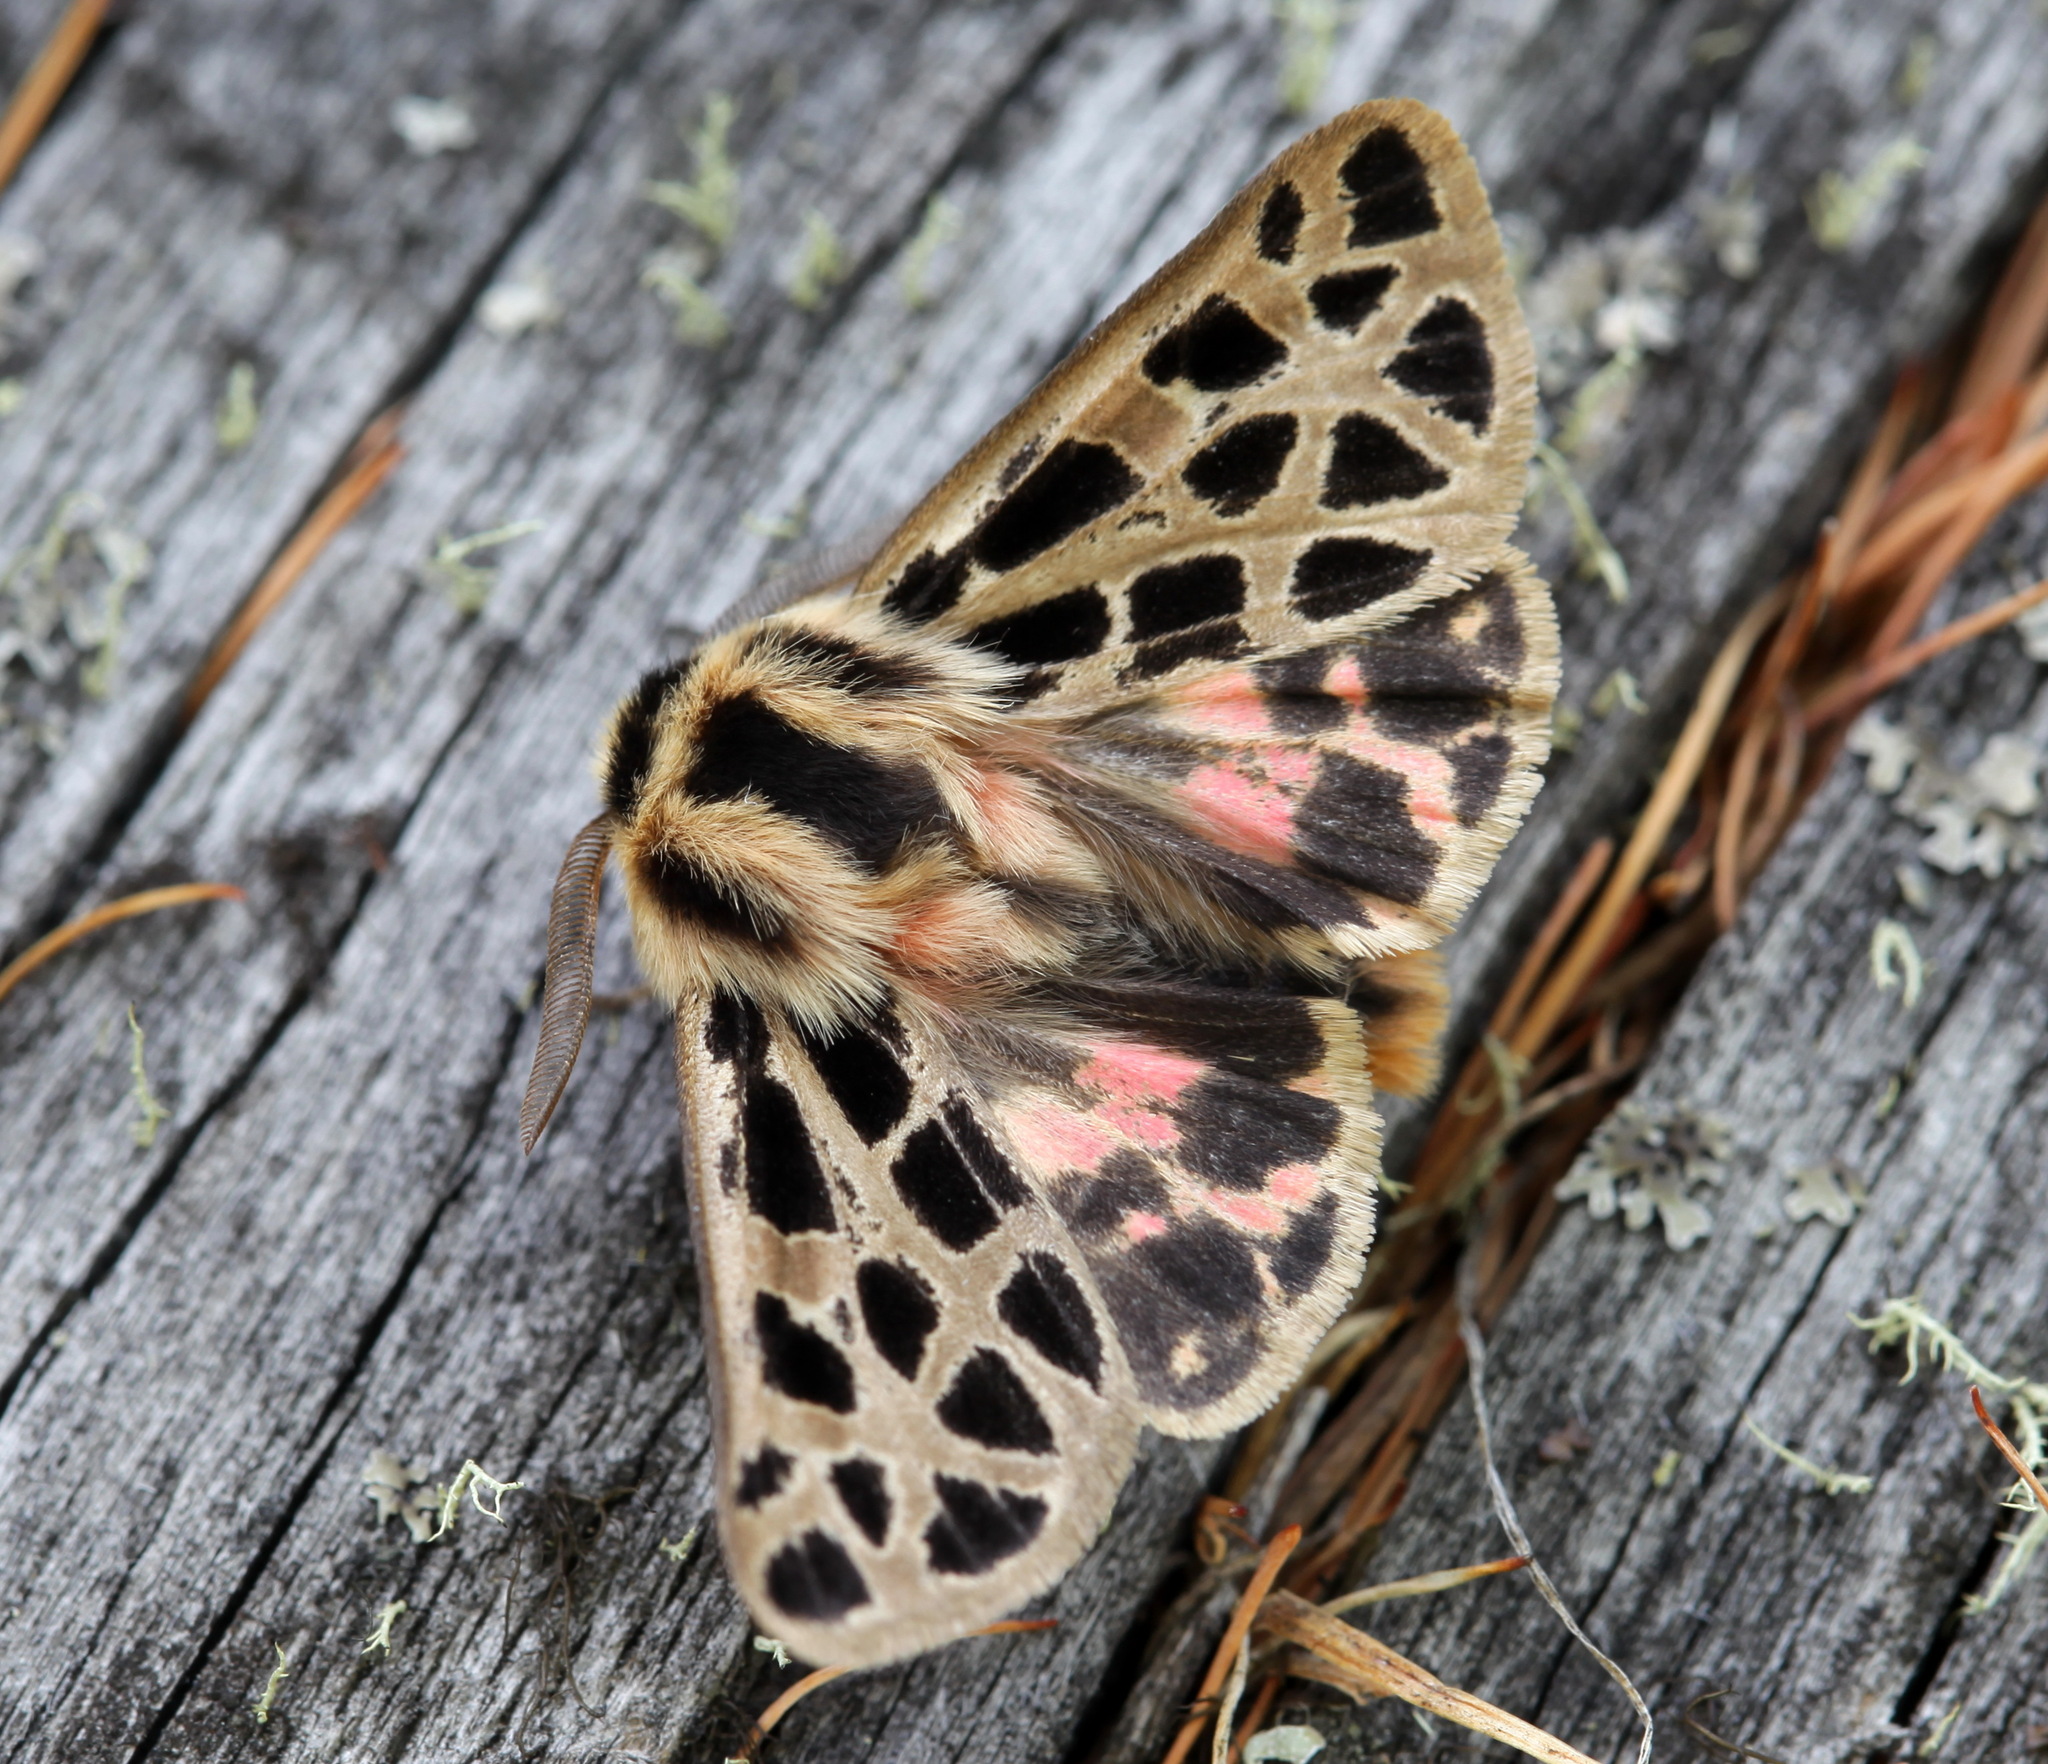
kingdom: Animalia
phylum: Arthropoda
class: Insecta
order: Lepidoptera
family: Erebidae
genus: Chelis
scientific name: Chelis caecilia
